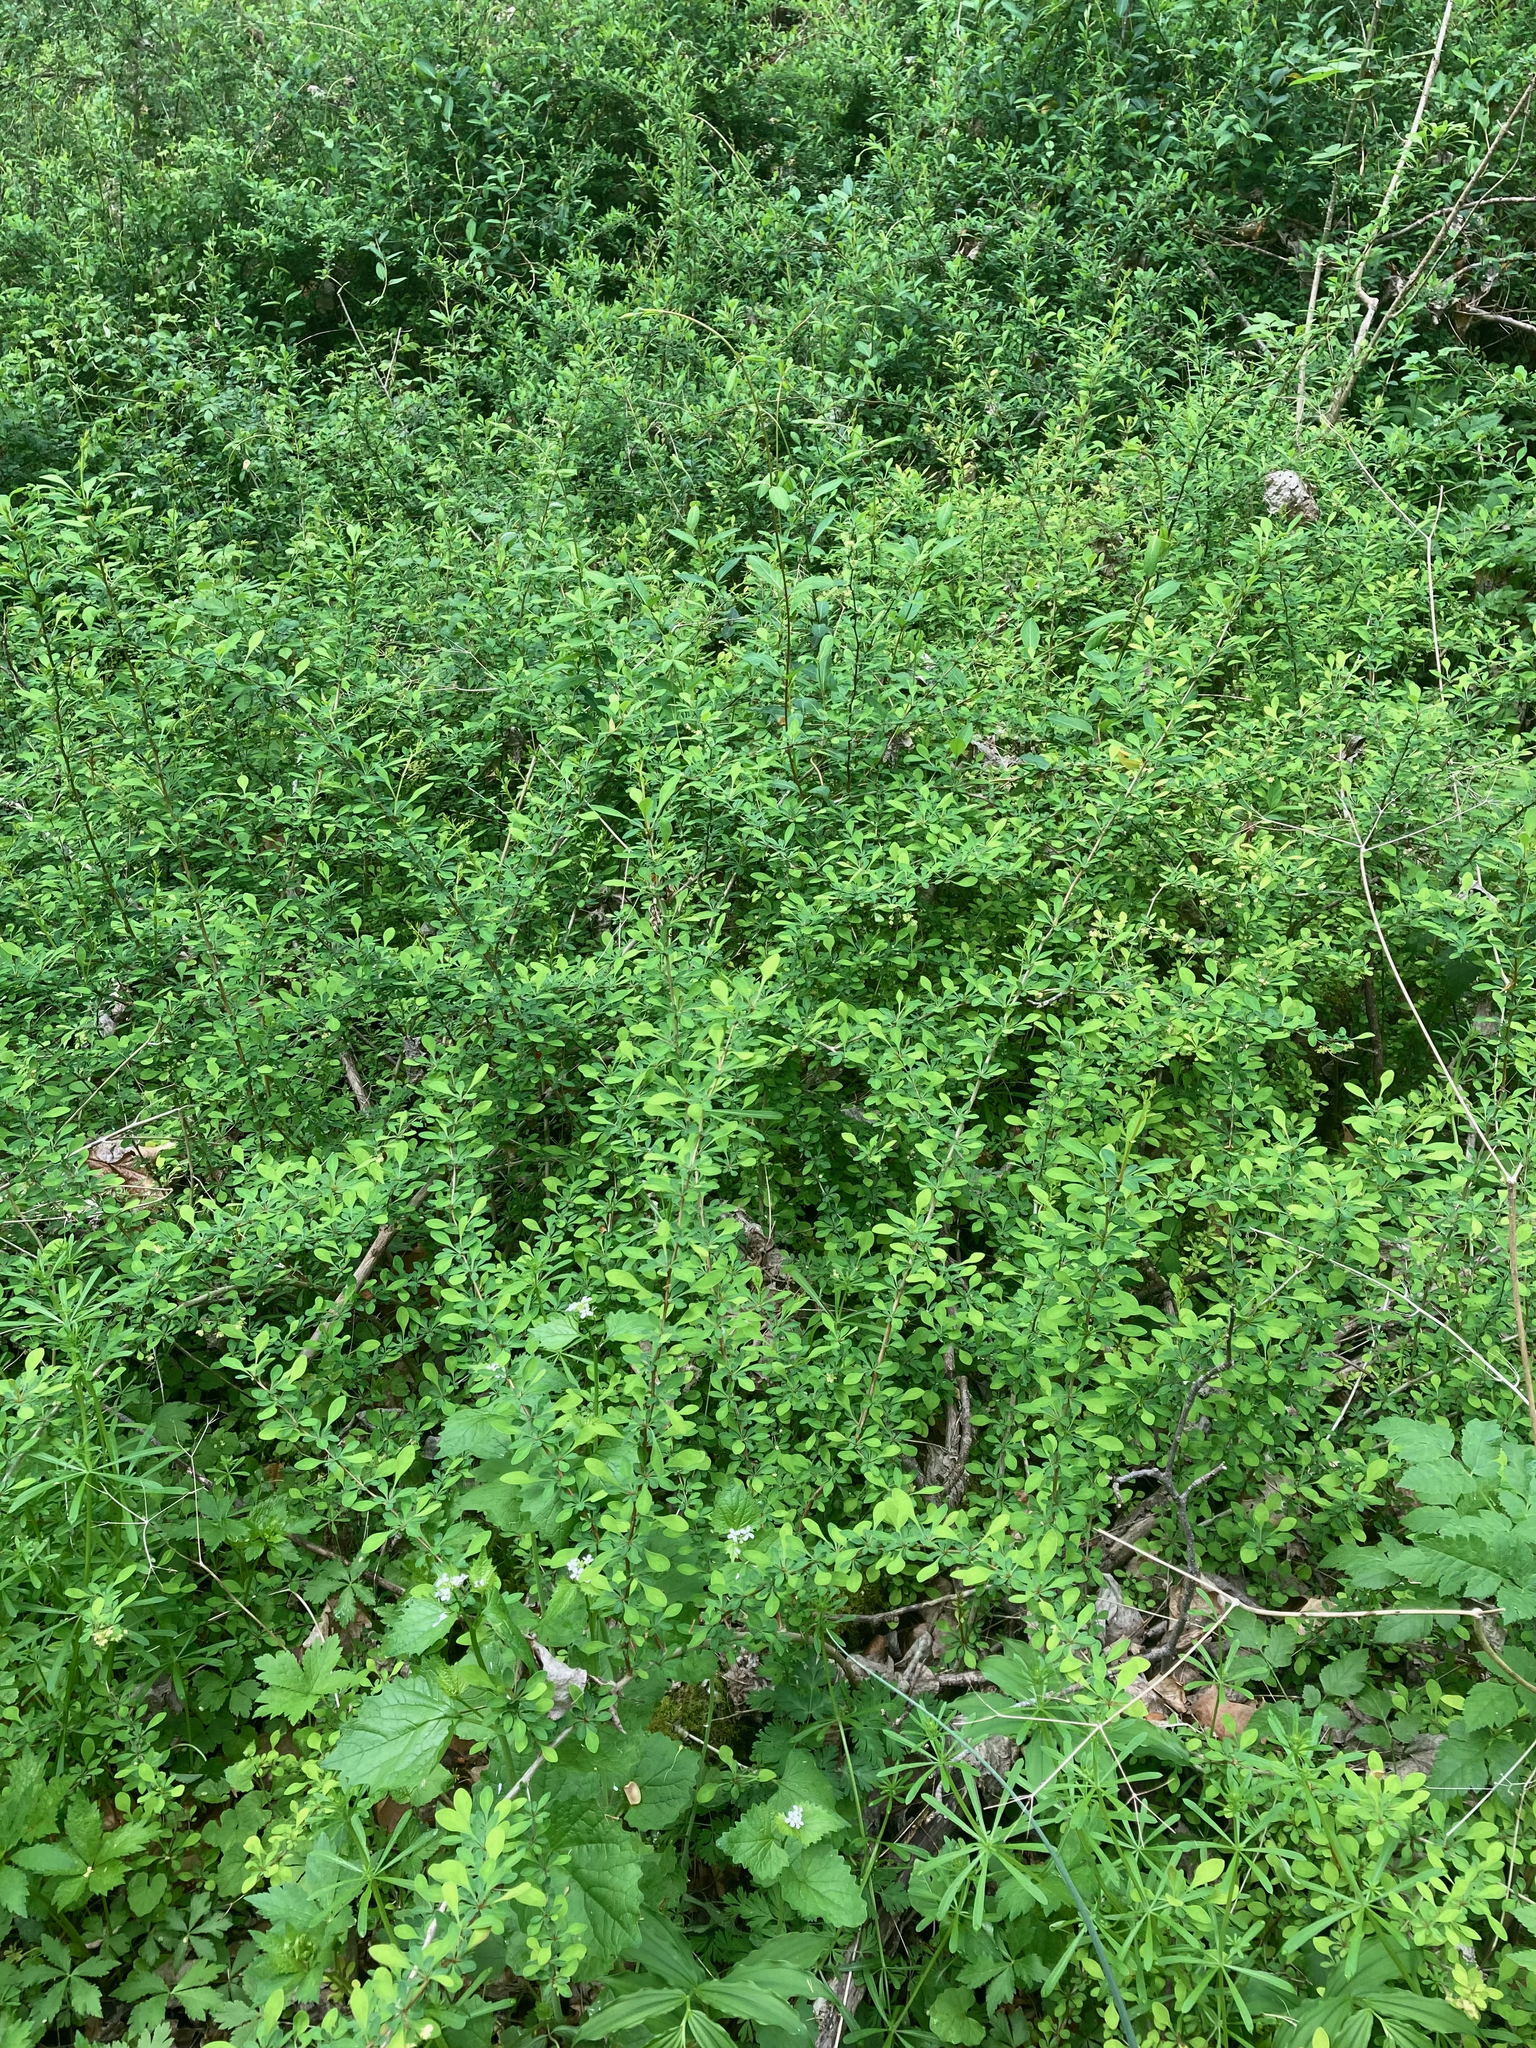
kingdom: Plantae
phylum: Tracheophyta
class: Magnoliopsida
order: Ranunculales
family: Berberidaceae
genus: Berberis
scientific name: Berberis thunbergii
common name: Japanese barberry
